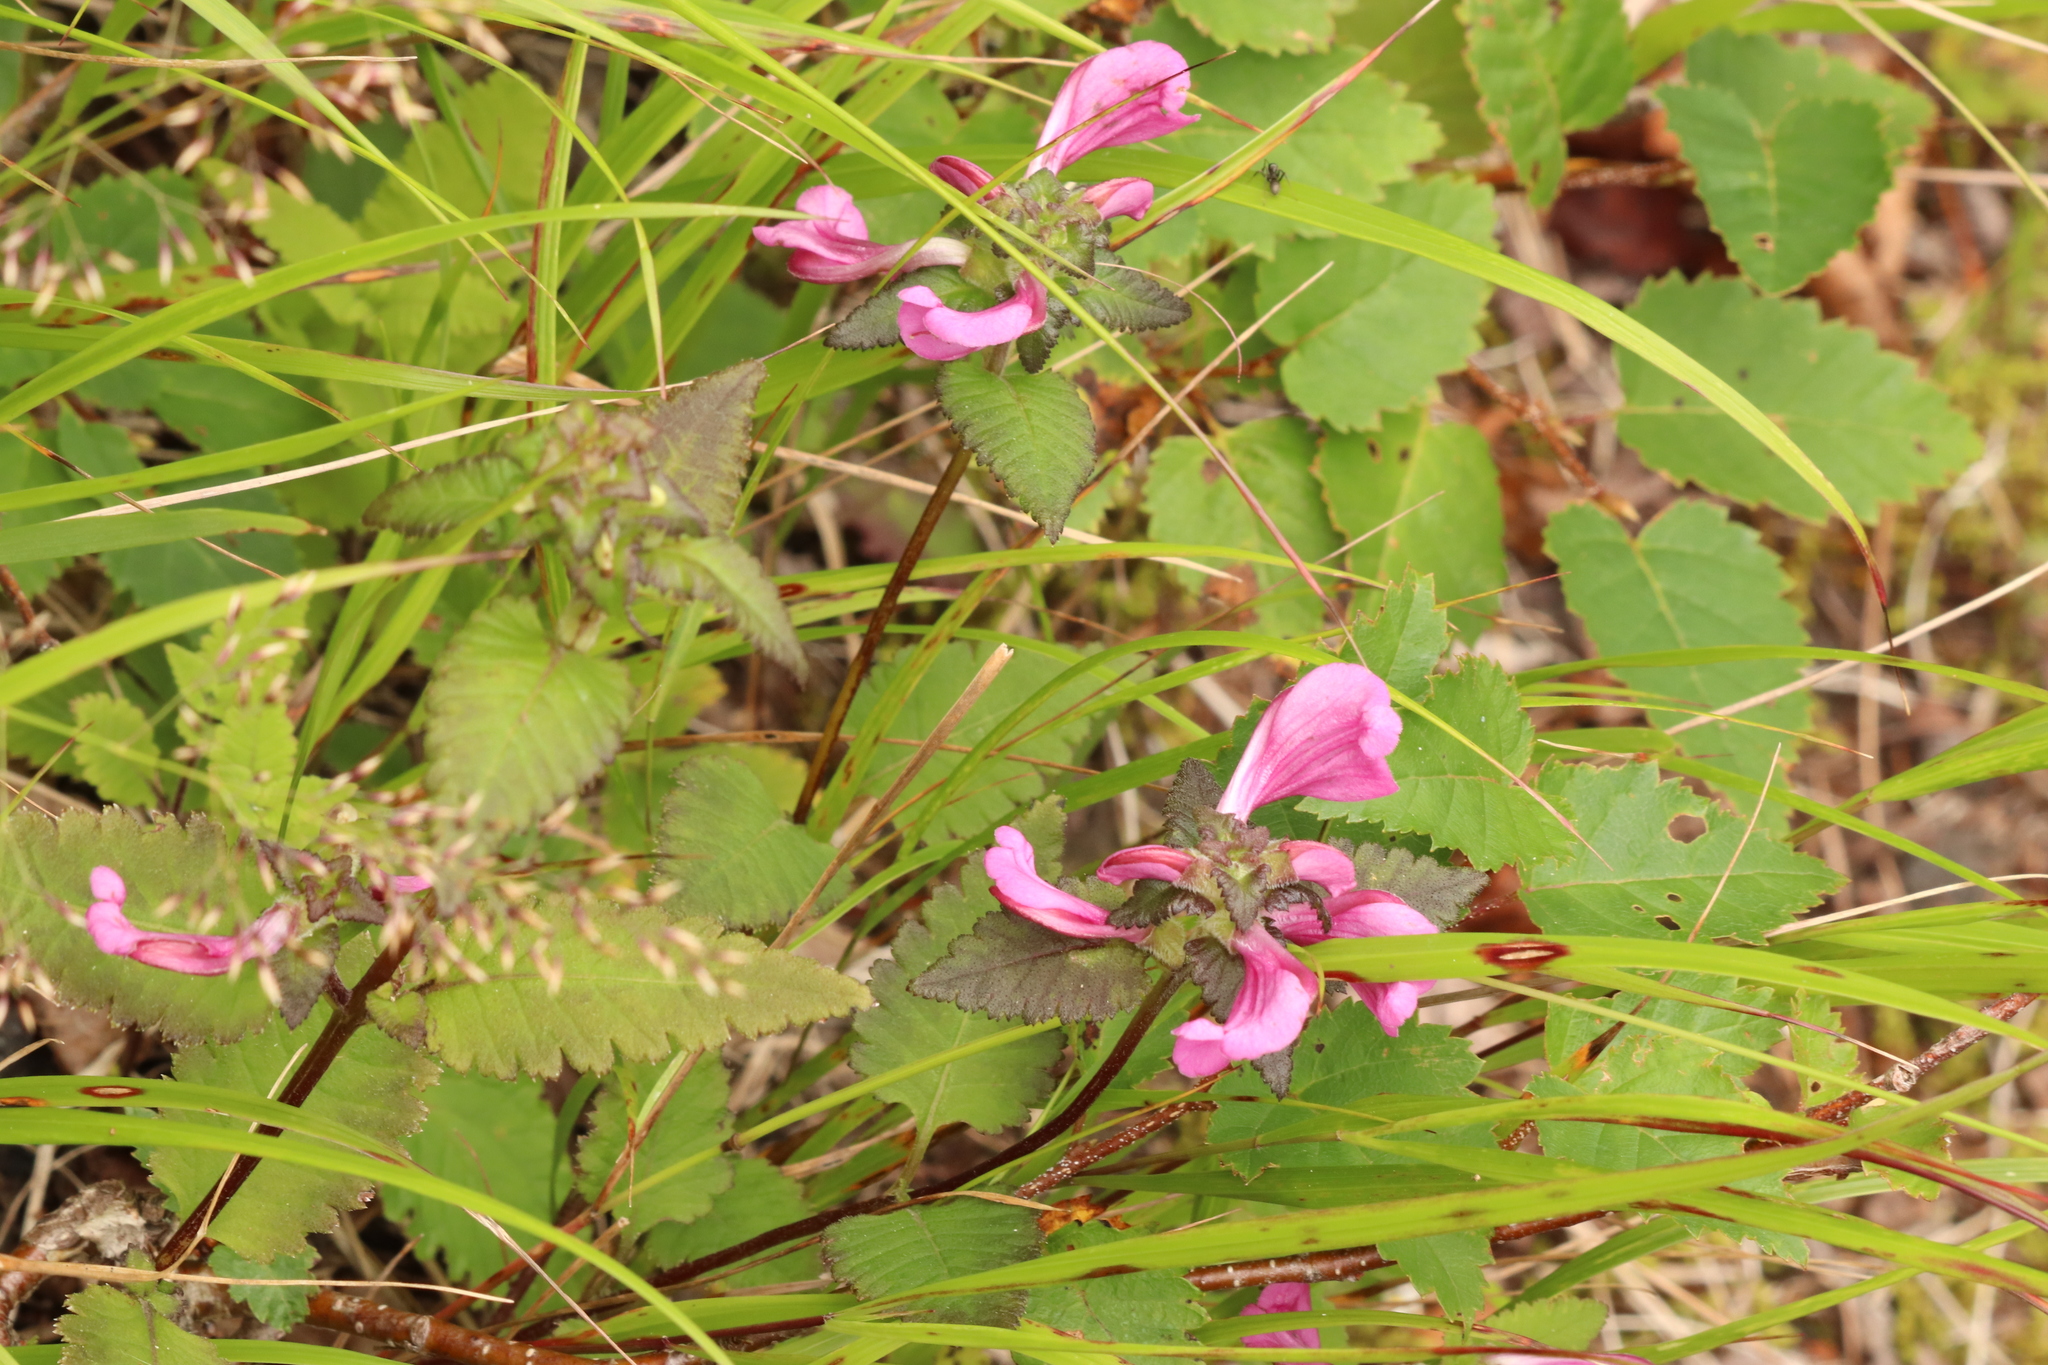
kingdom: Plantae
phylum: Tracheophyta
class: Magnoliopsida
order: Lamiales
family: Orobanchaceae
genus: Pedicularis
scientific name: Pedicularis resupinata
